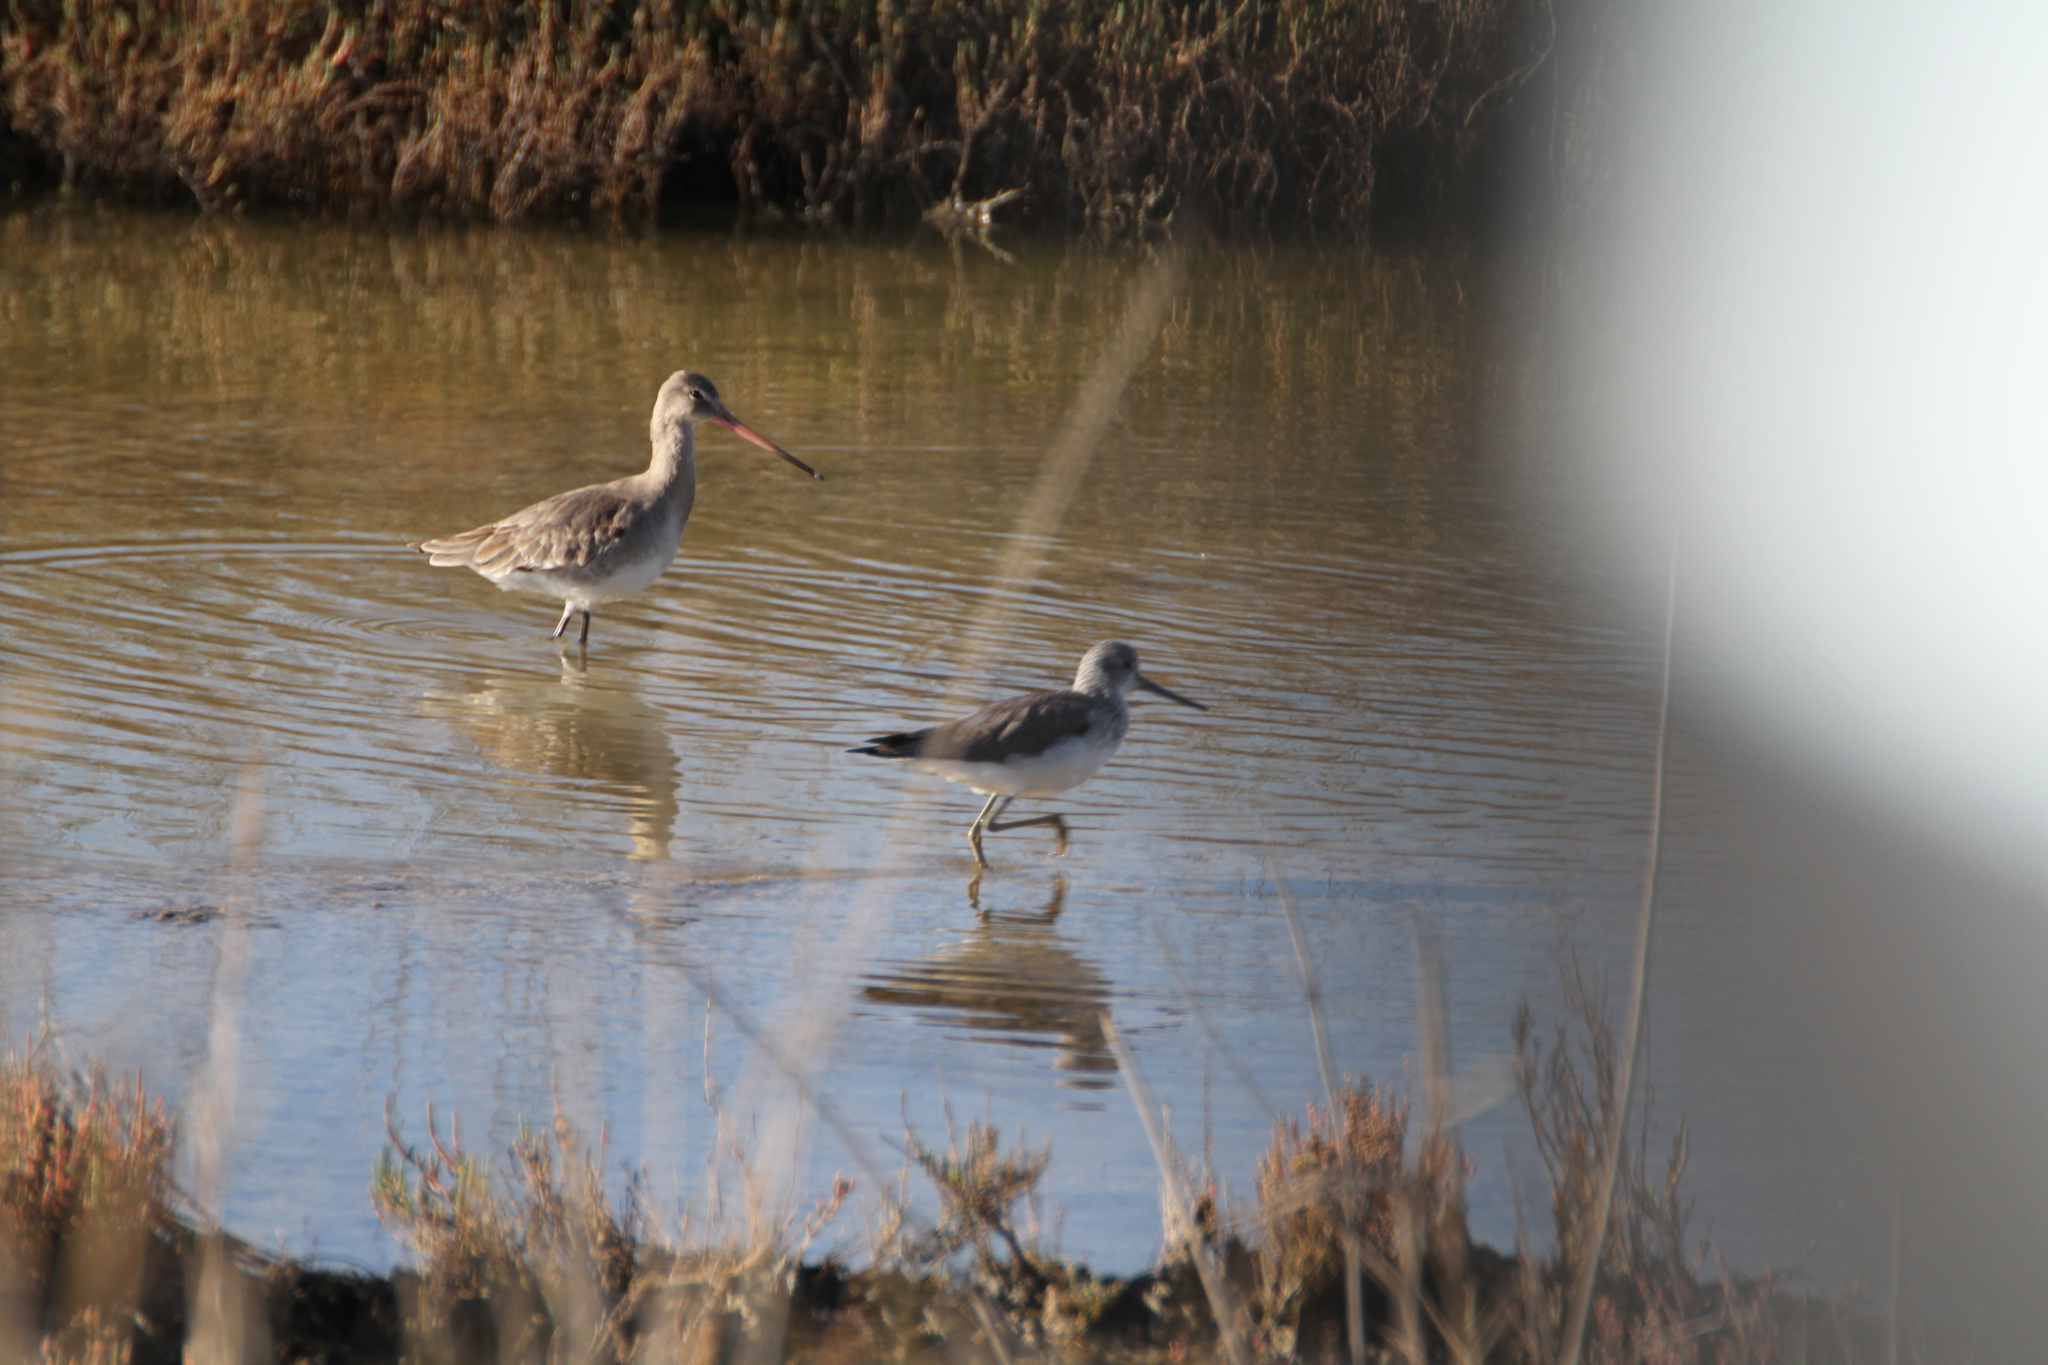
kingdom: Animalia
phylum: Chordata
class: Aves
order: Charadriiformes
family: Scolopacidae
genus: Tringa
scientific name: Tringa nebularia
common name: Common greenshank
